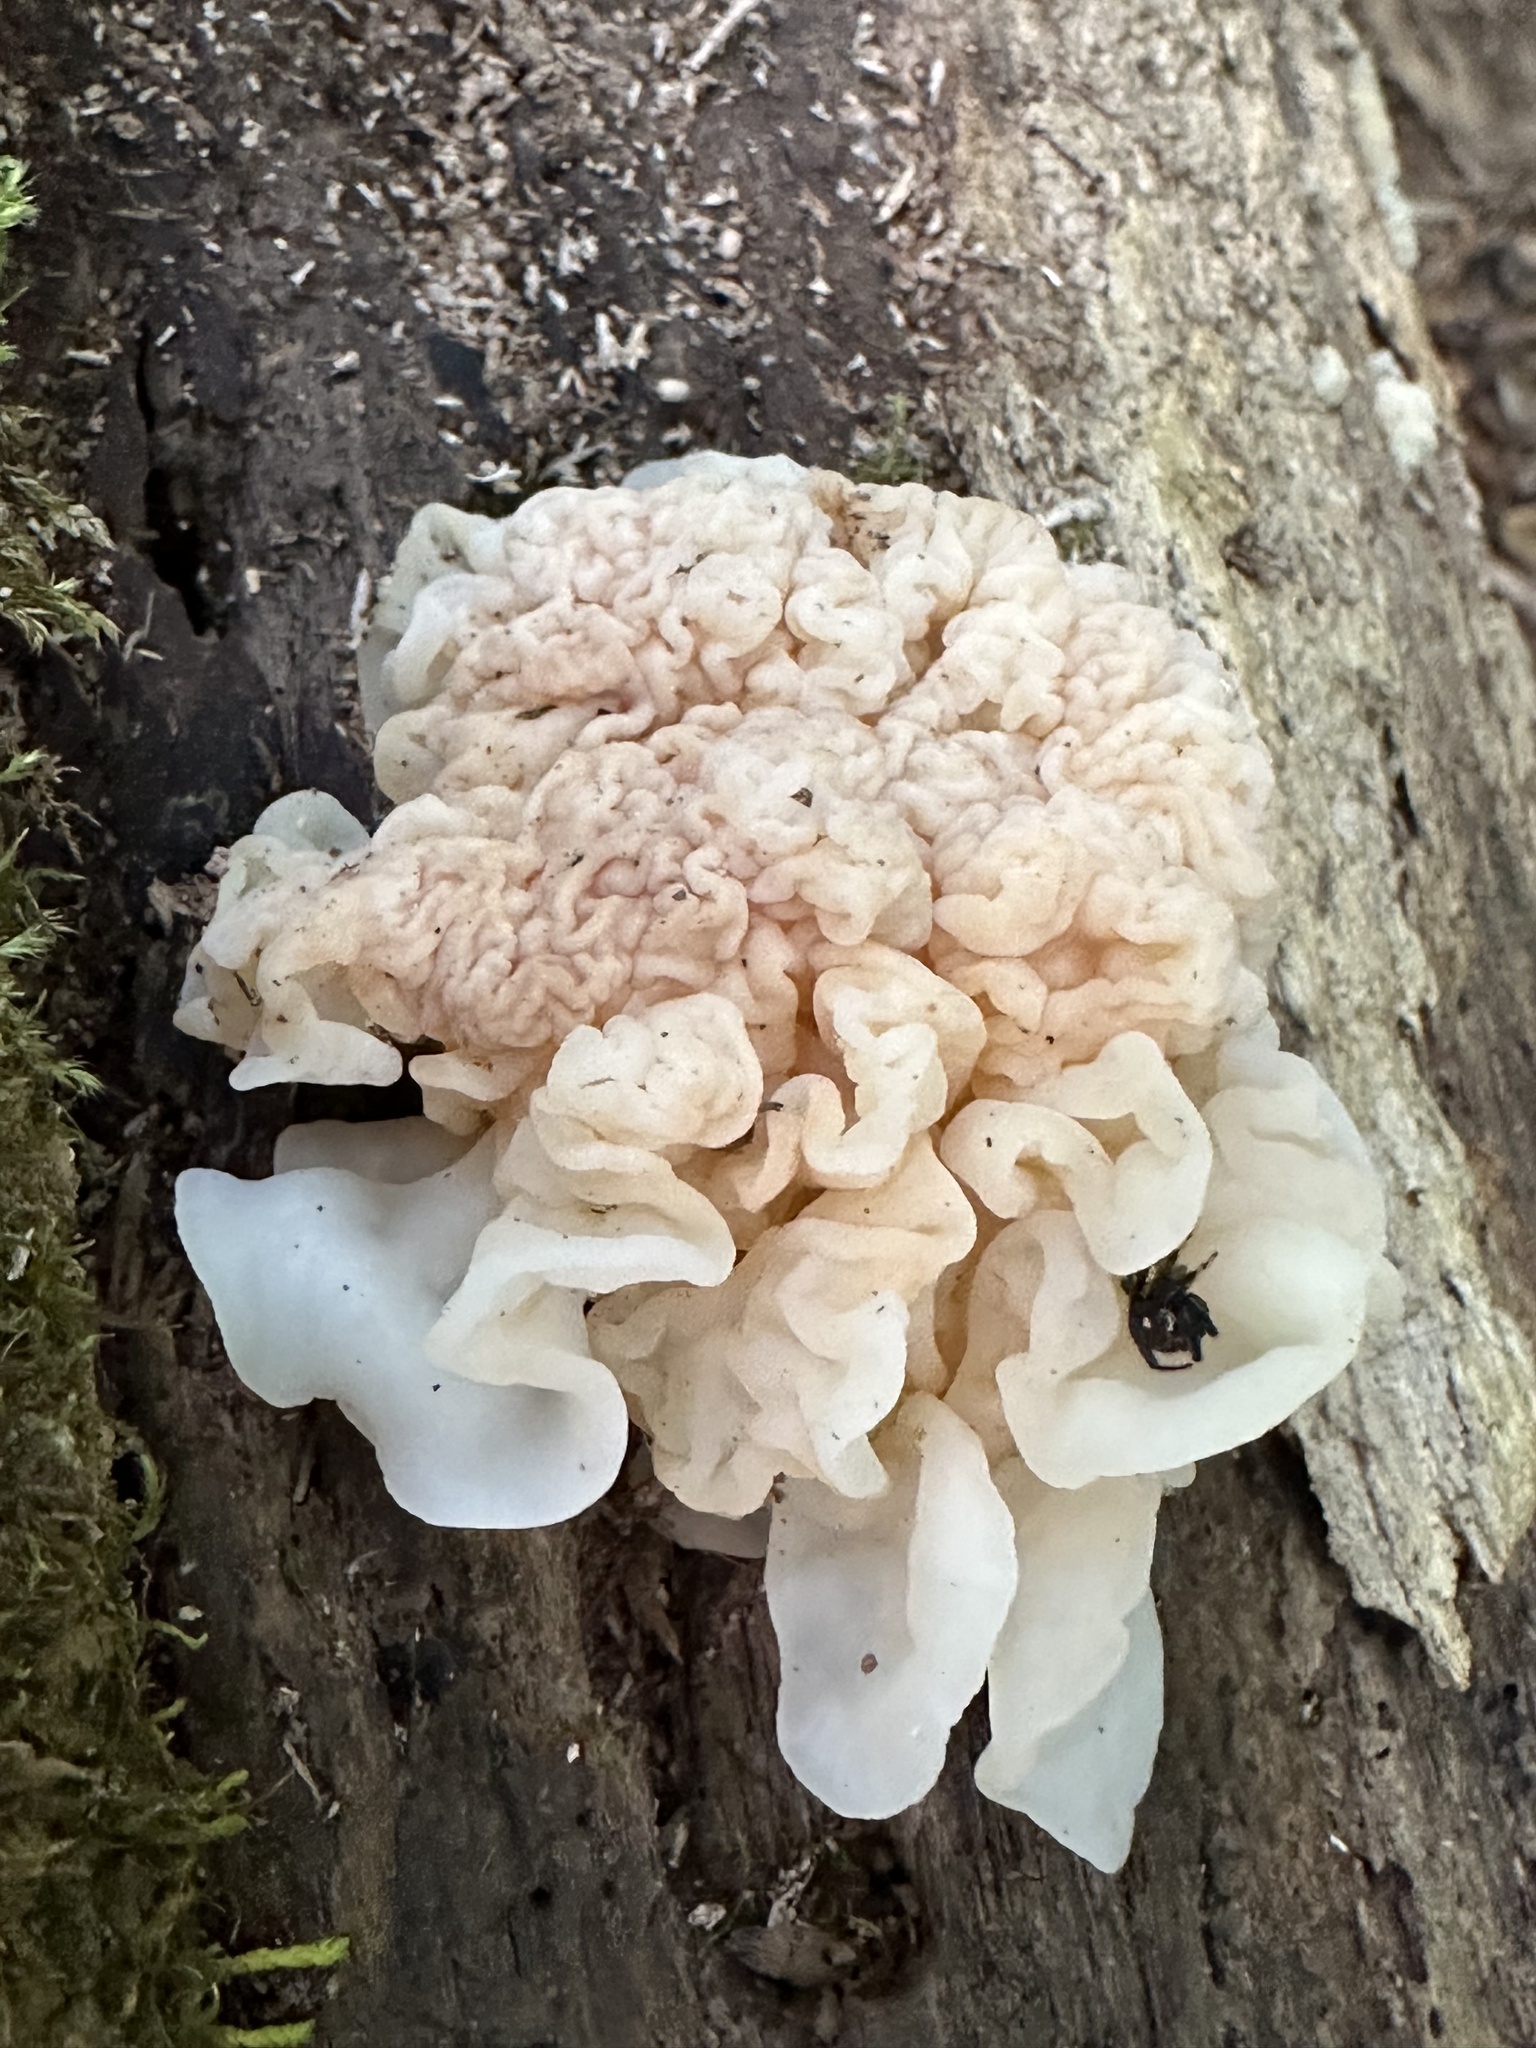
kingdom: Fungi
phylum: Basidiomycota
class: Agaricomycetes
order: Auriculariales
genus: Ductifera
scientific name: Ductifera pululahuana
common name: White jelly fungus
